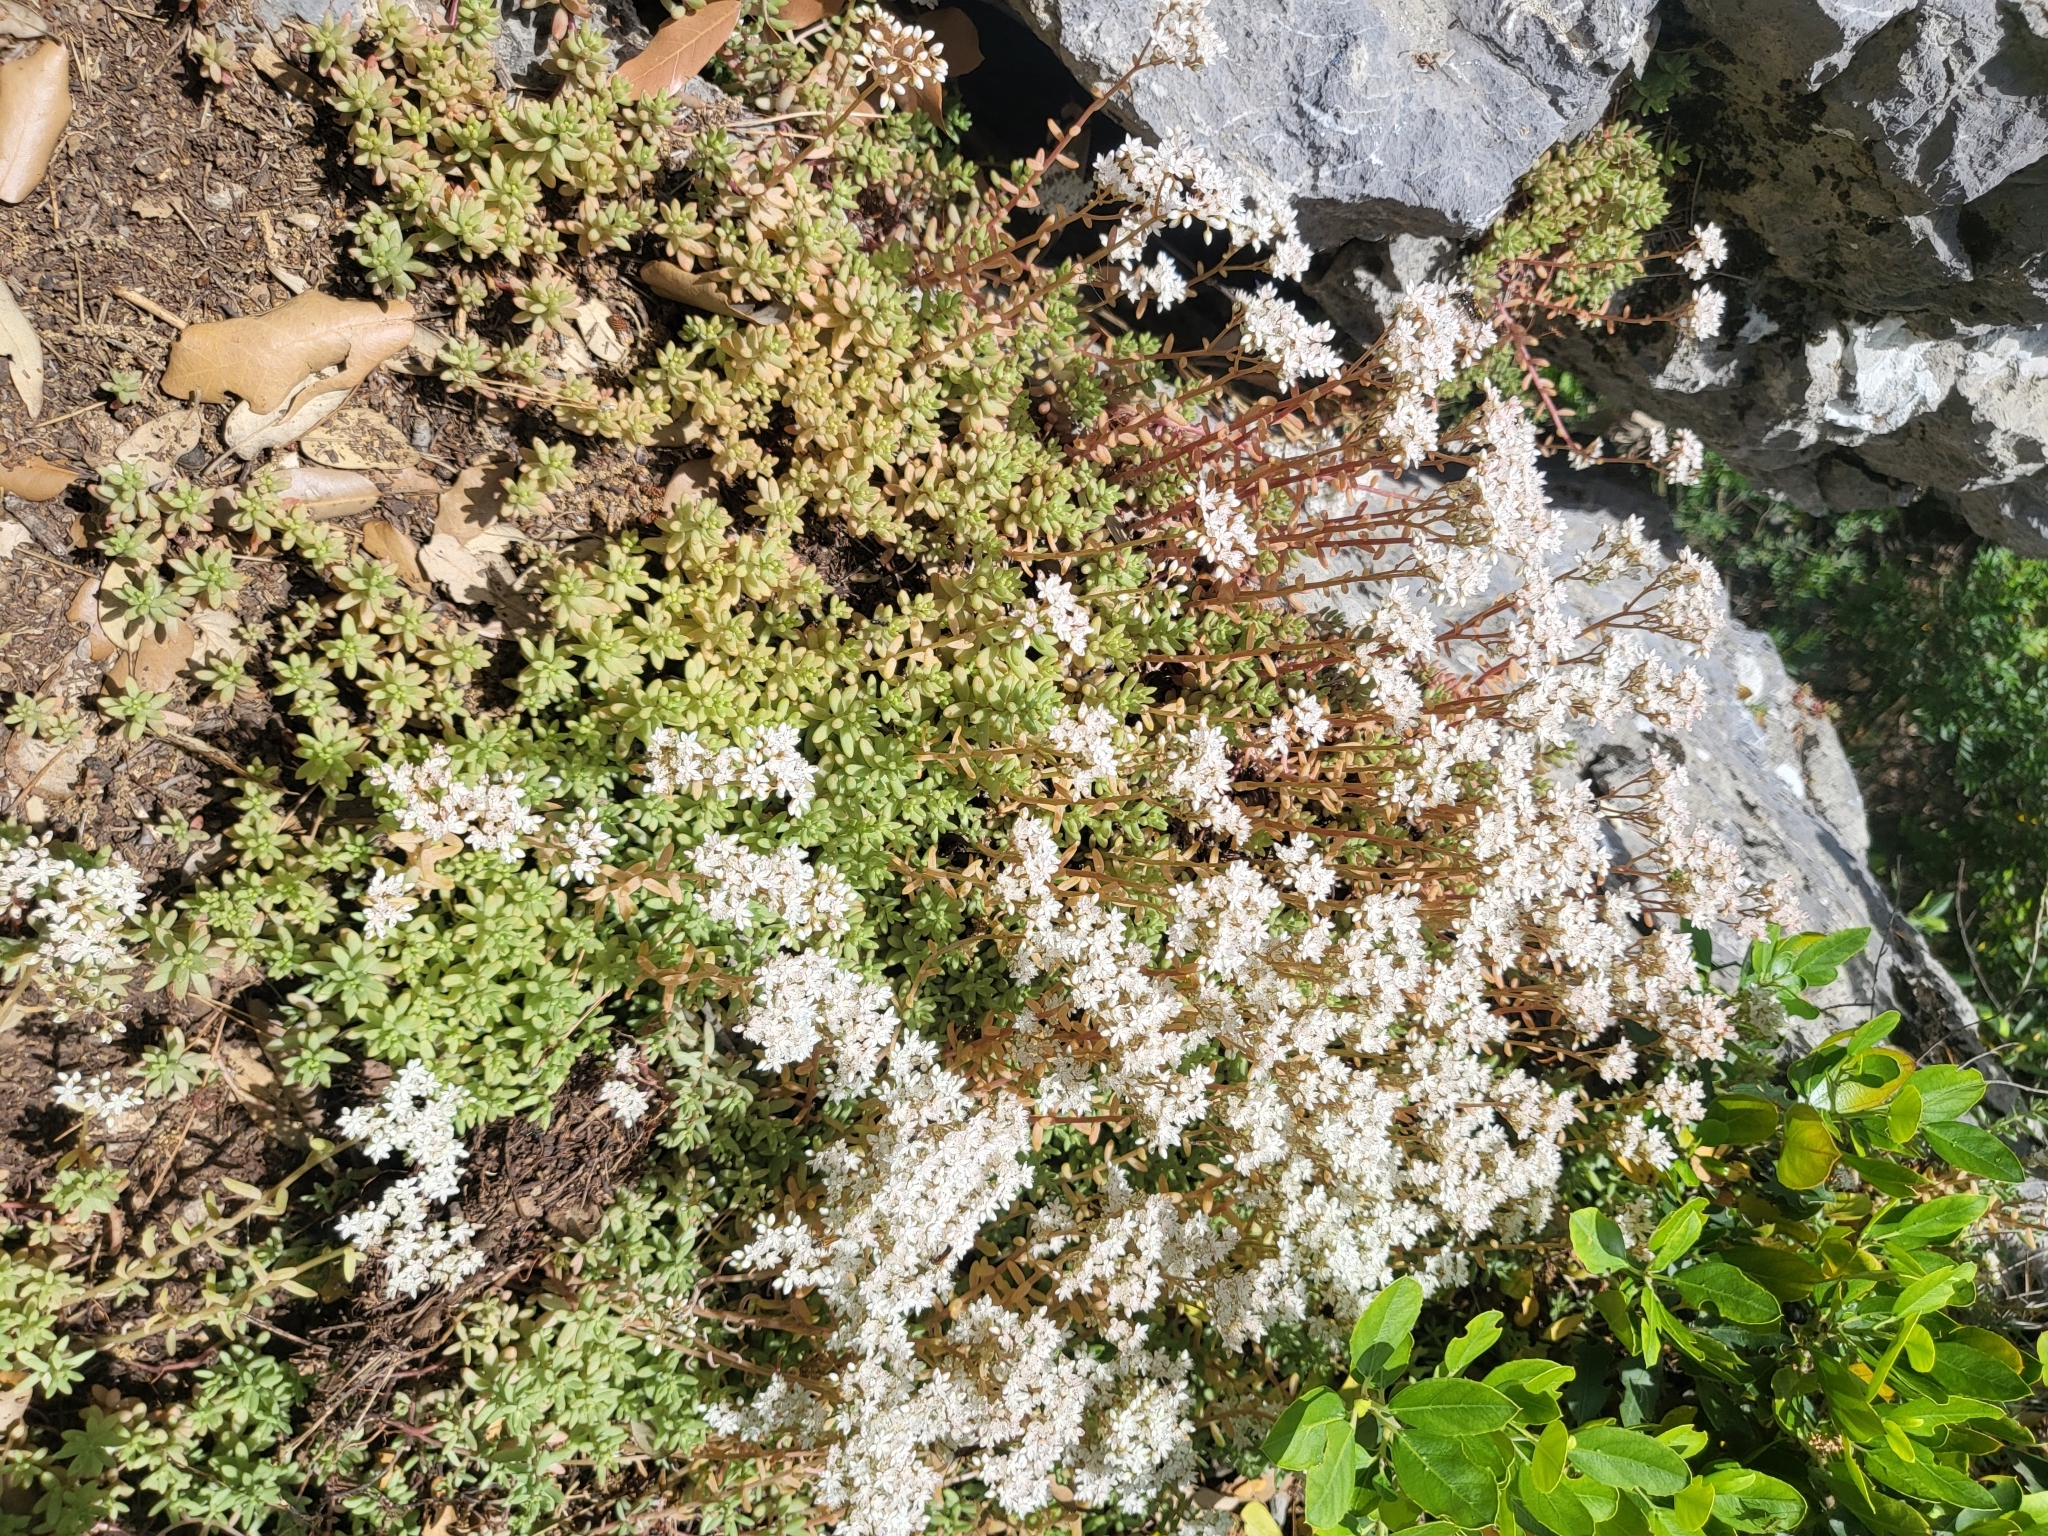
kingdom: Plantae
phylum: Tracheophyta
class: Magnoliopsida
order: Saxifragales
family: Crassulaceae
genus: Sedum
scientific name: Sedum album
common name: White stonecrop
